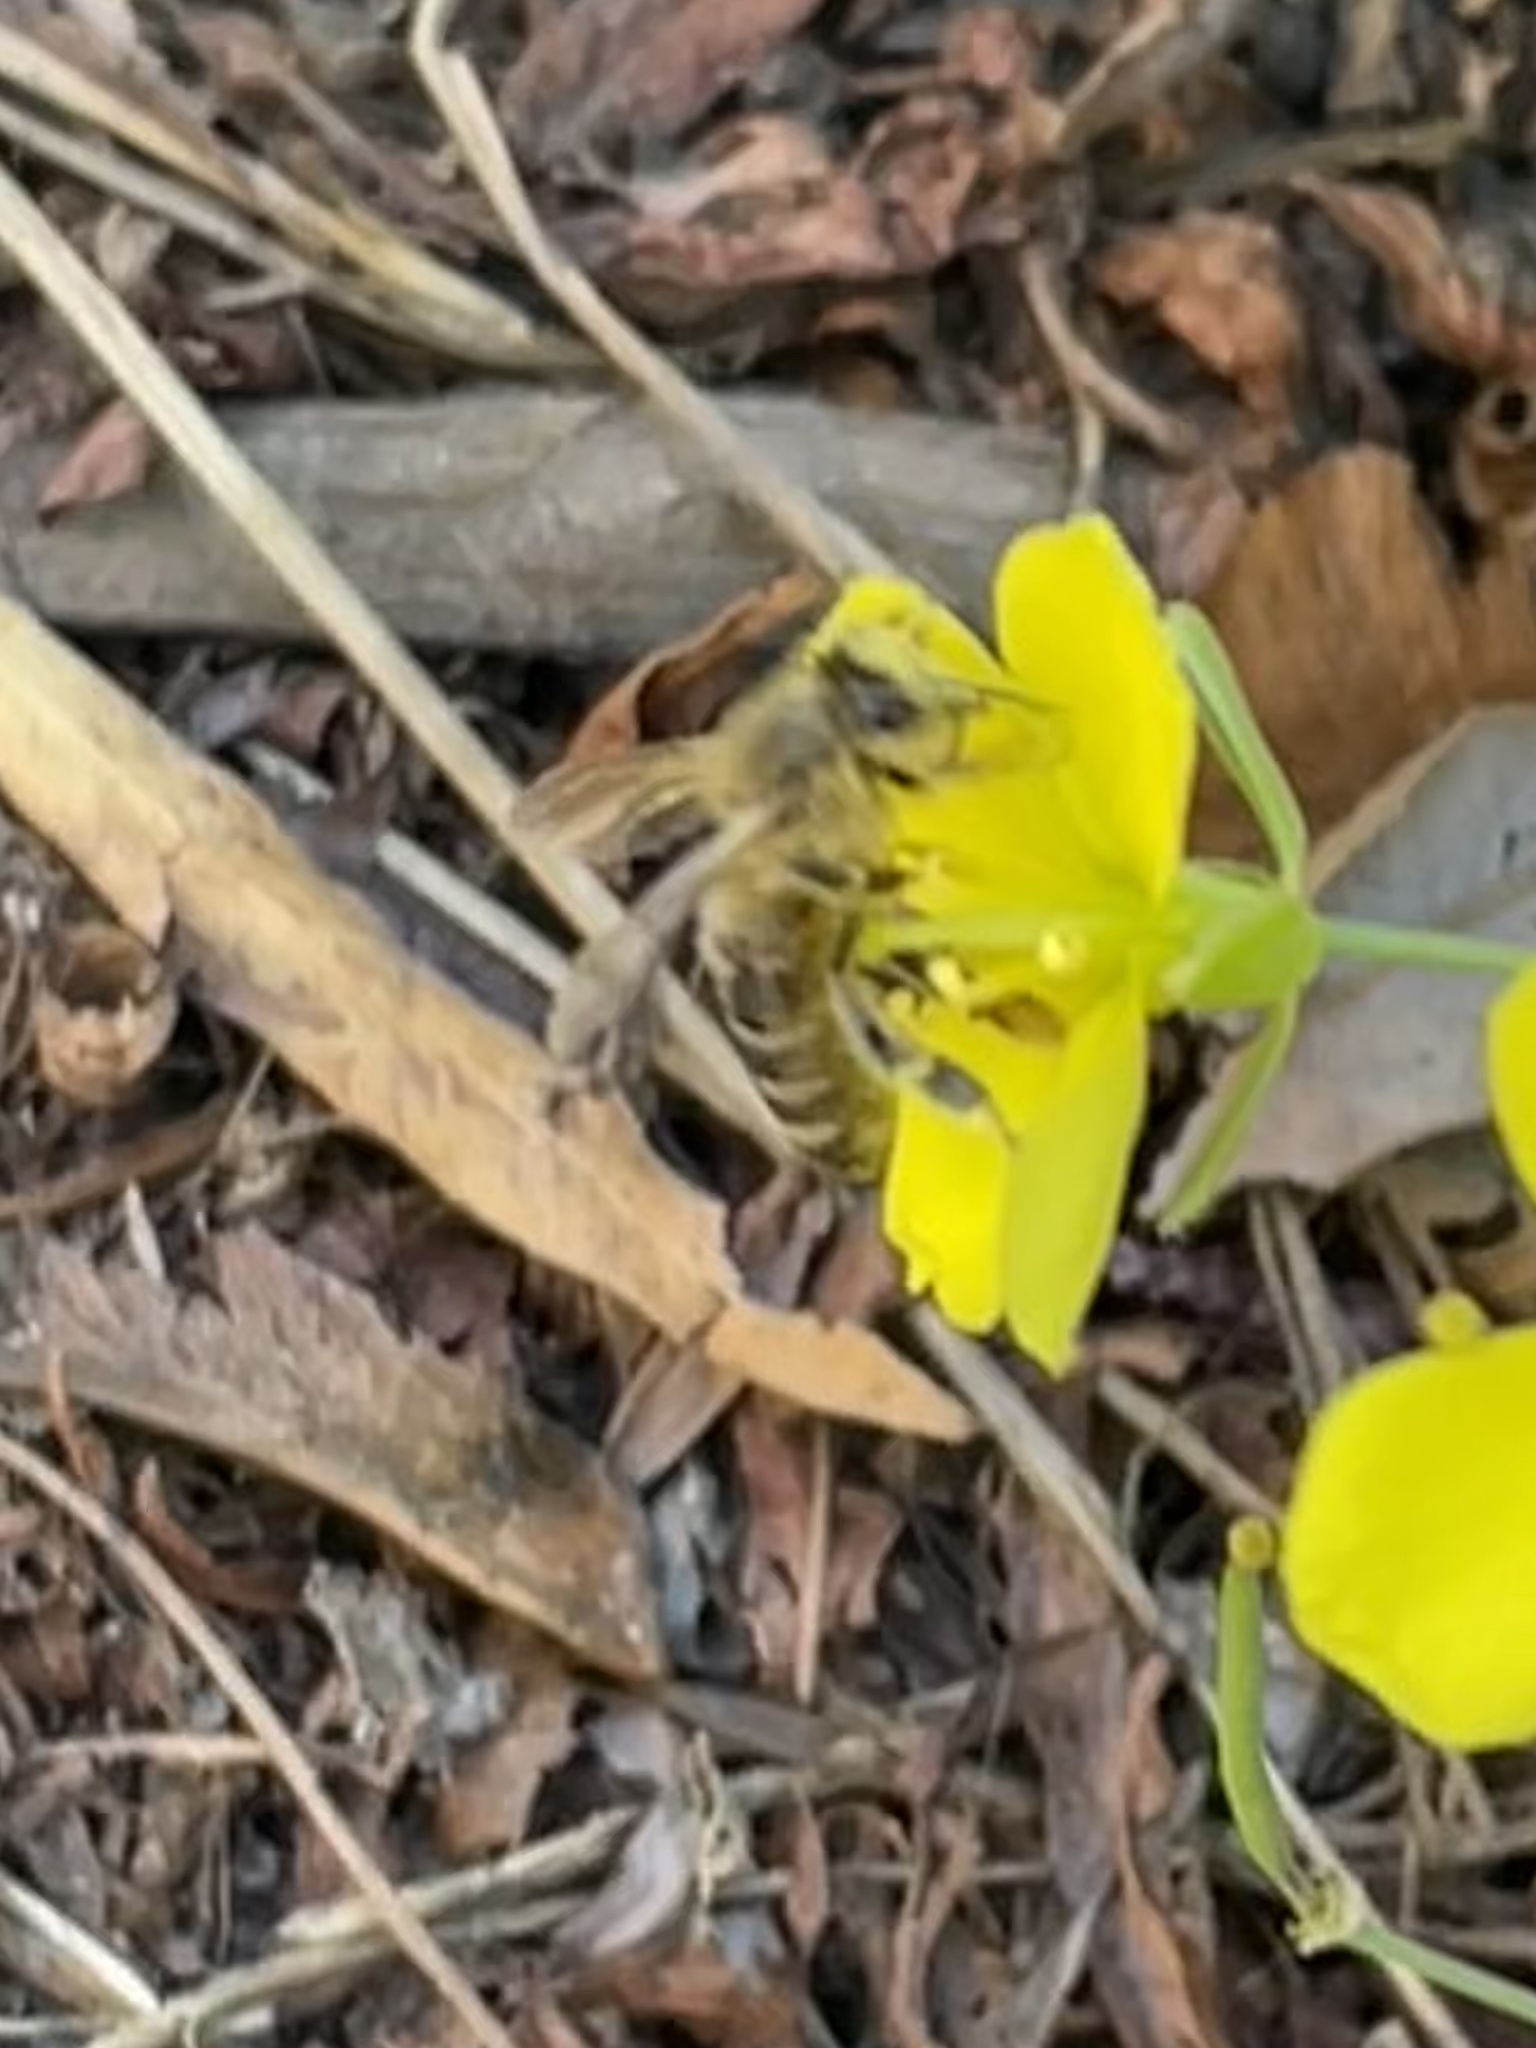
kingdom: Animalia
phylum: Arthropoda
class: Insecta
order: Hymenoptera
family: Apidae
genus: Apis
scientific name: Apis mellifera
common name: Honey bee
